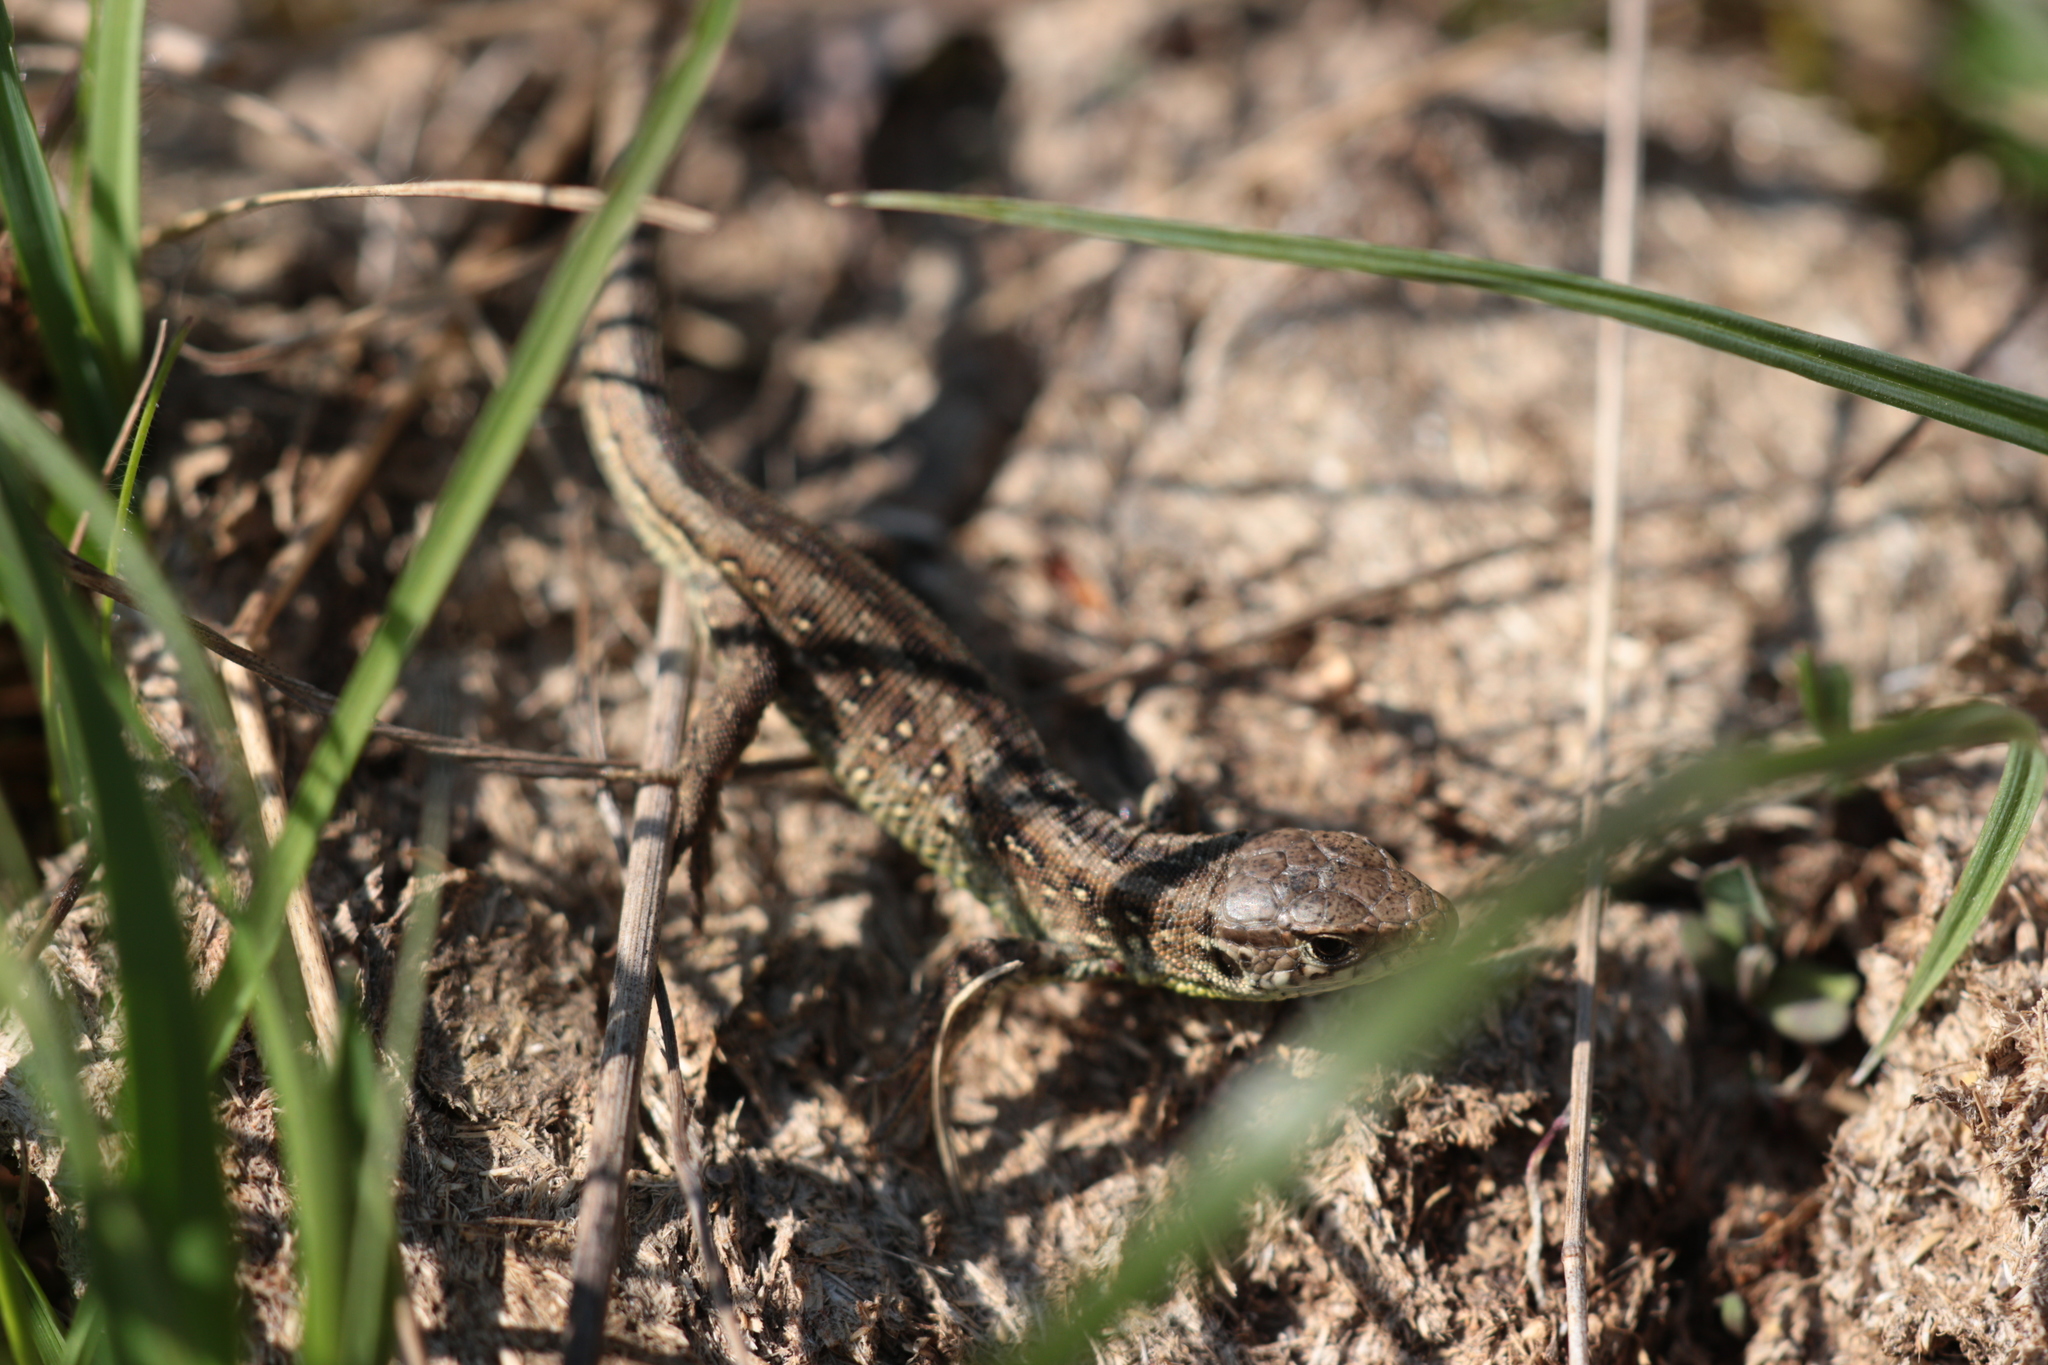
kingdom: Animalia
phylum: Chordata
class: Squamata
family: Lacertidae
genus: Lacerta
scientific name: Lacerta agilis
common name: Sand lizard
